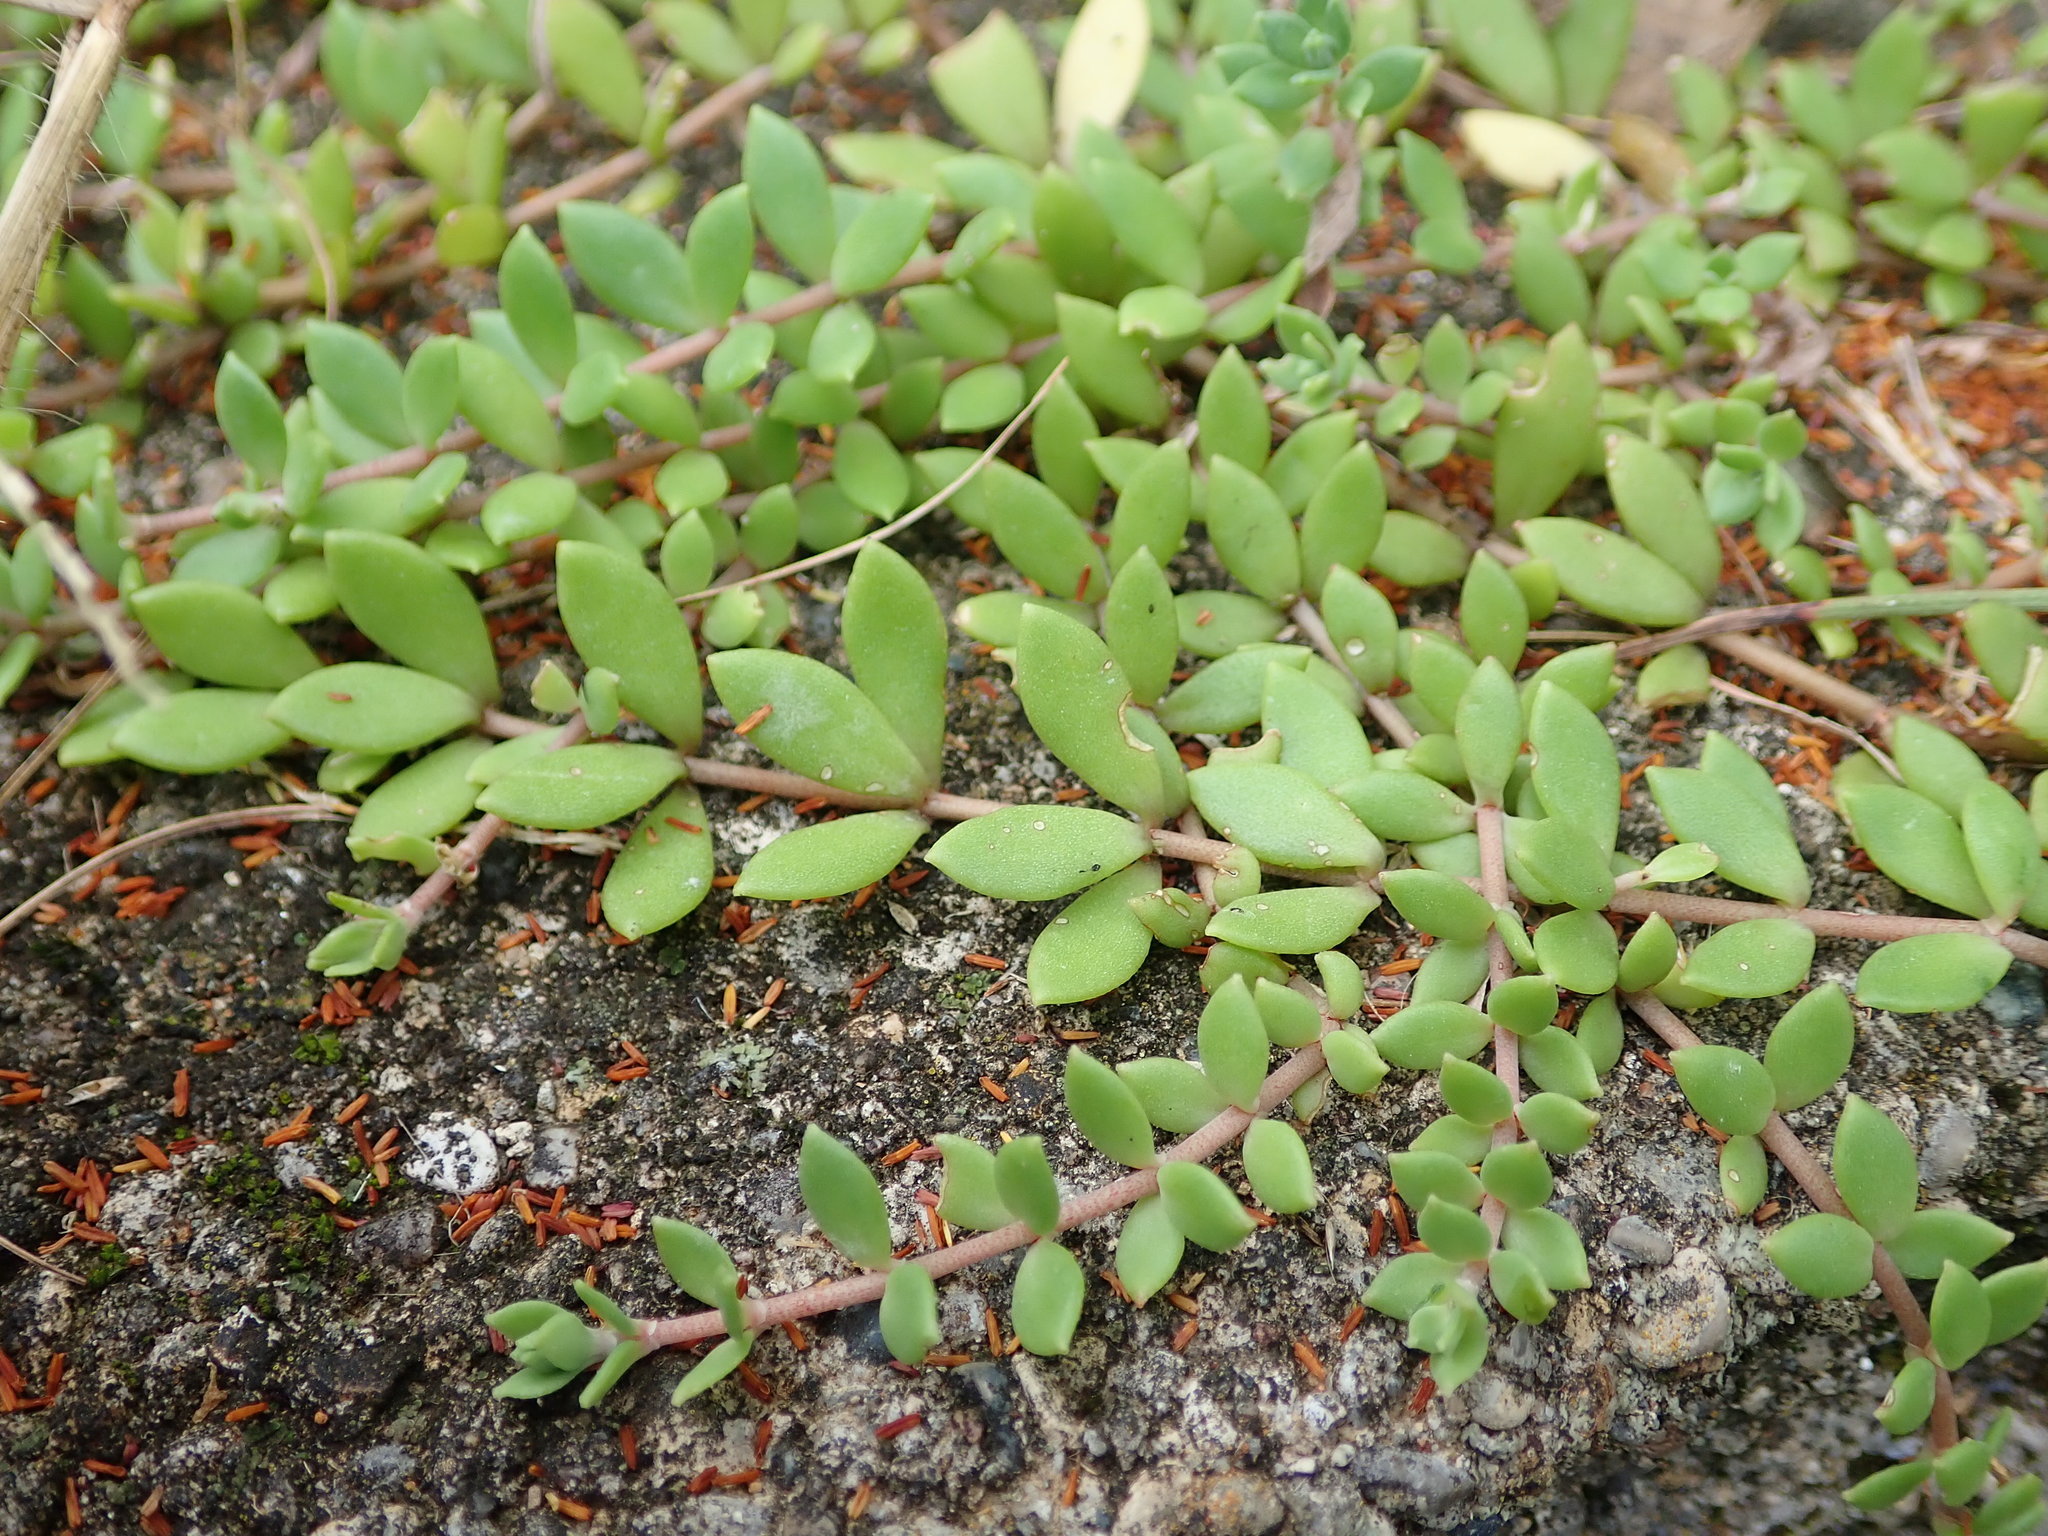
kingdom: Plantae
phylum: Tracheophyta
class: Magnoliopsida
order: Saxifragales
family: Crassulaceae
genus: Sedum
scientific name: Sedum sarmentosum
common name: Stringy stonecrop
